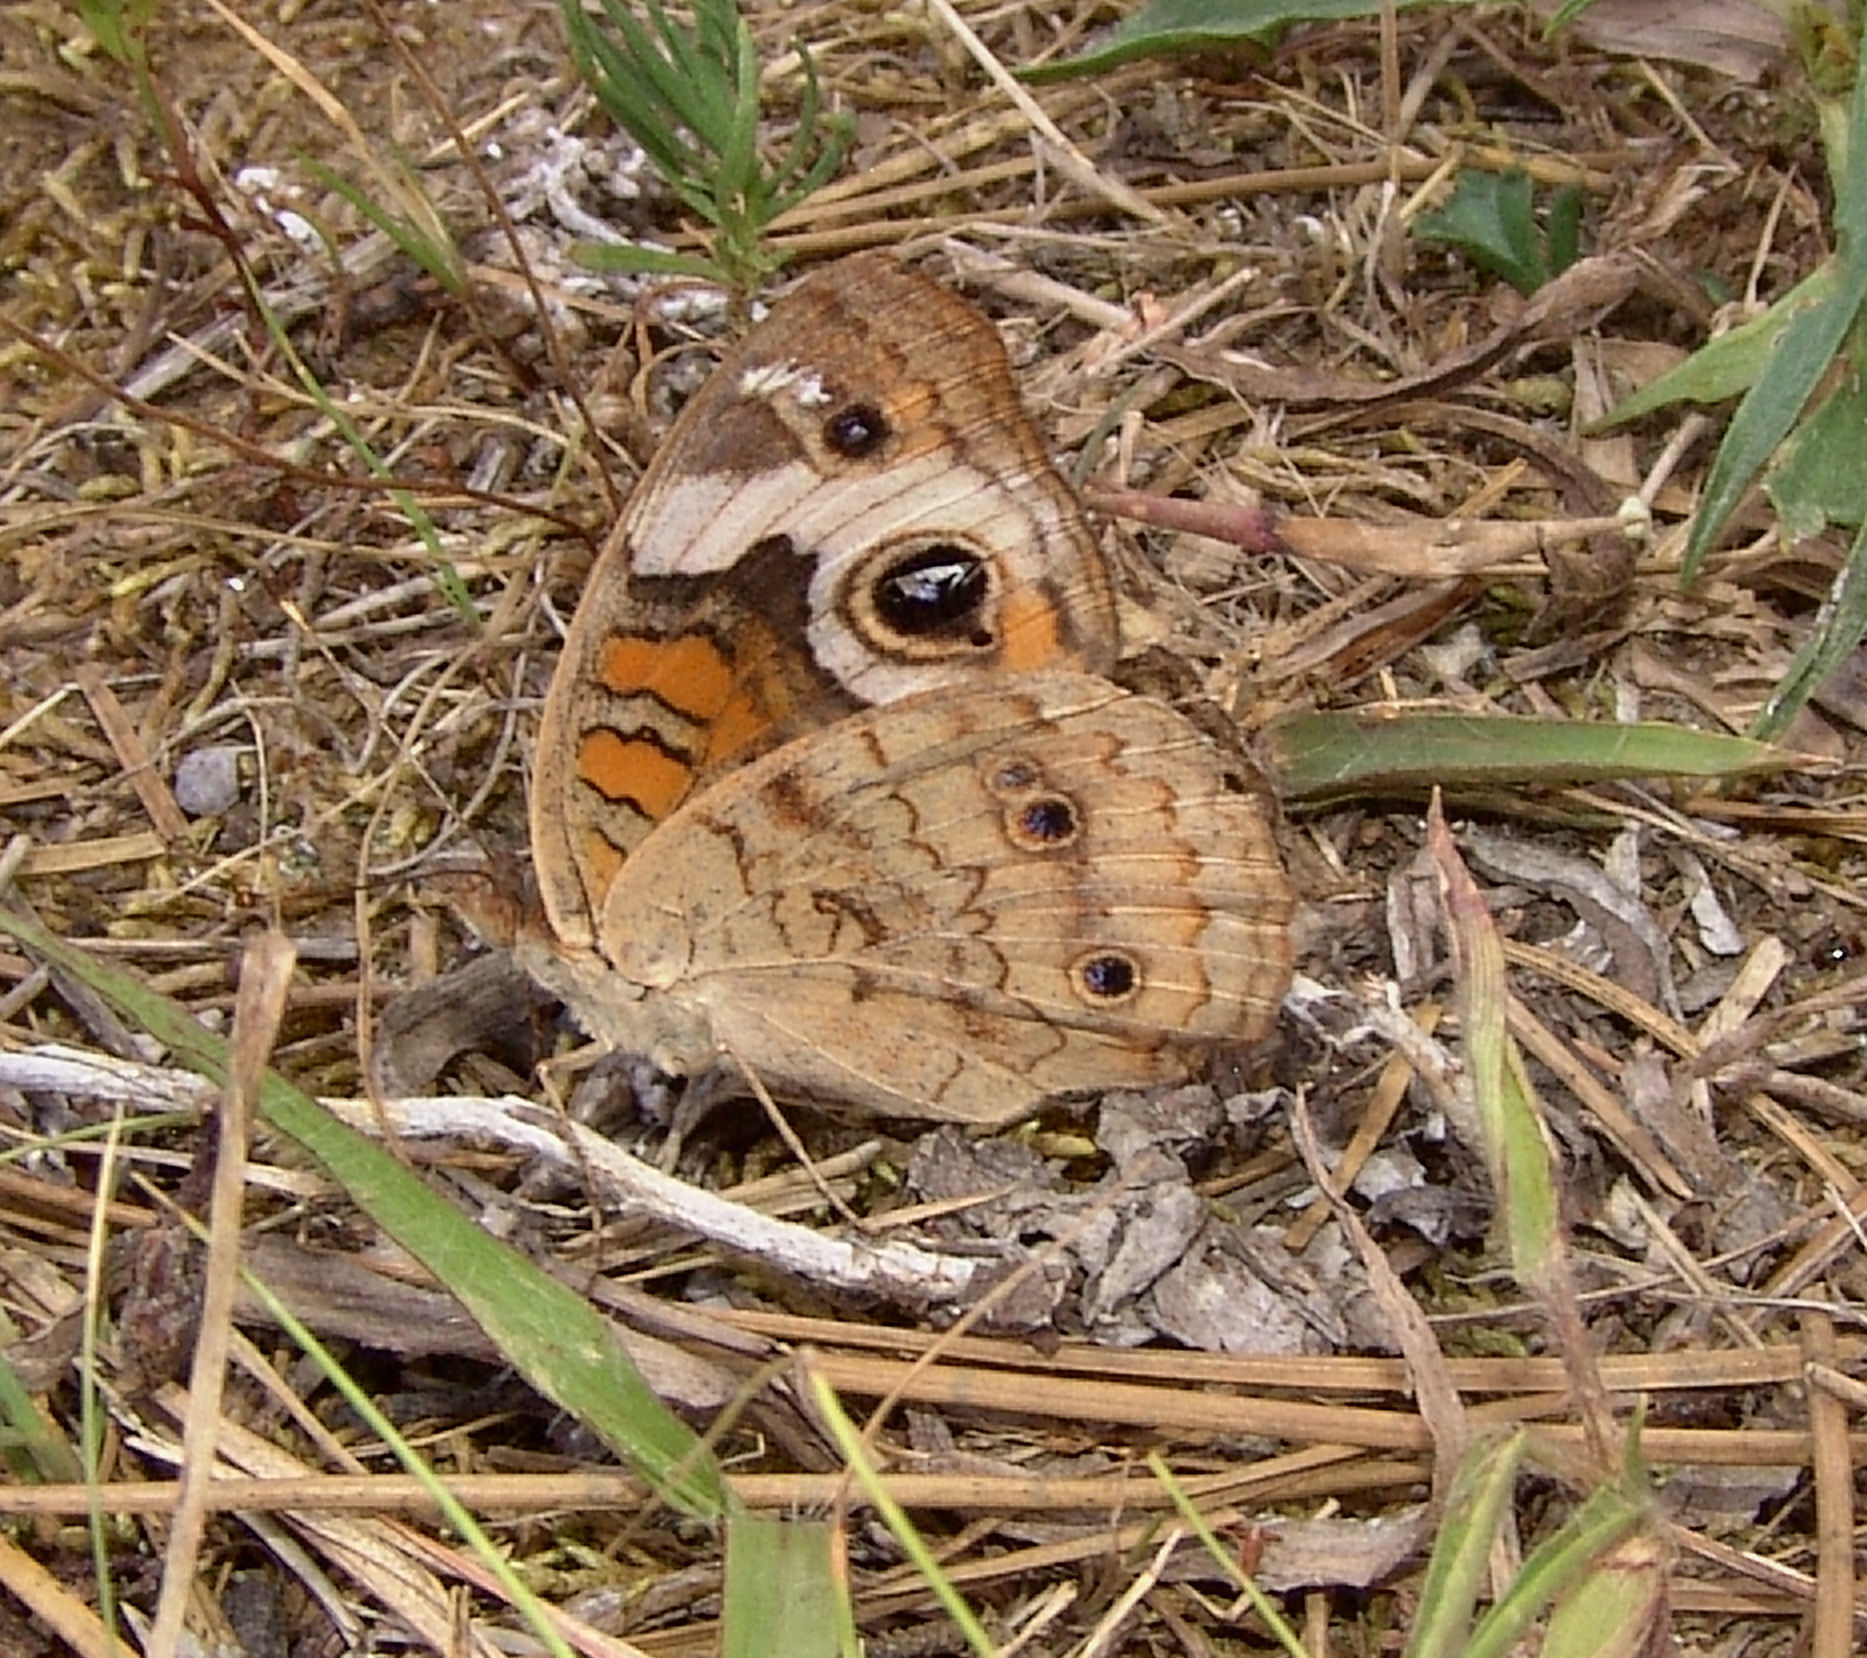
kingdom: Animalia
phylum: Arthropoda
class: Insecta
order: Lepidoptera
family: Nymphalidae
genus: Junonia
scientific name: Junonia coenia
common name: Common buckeye
